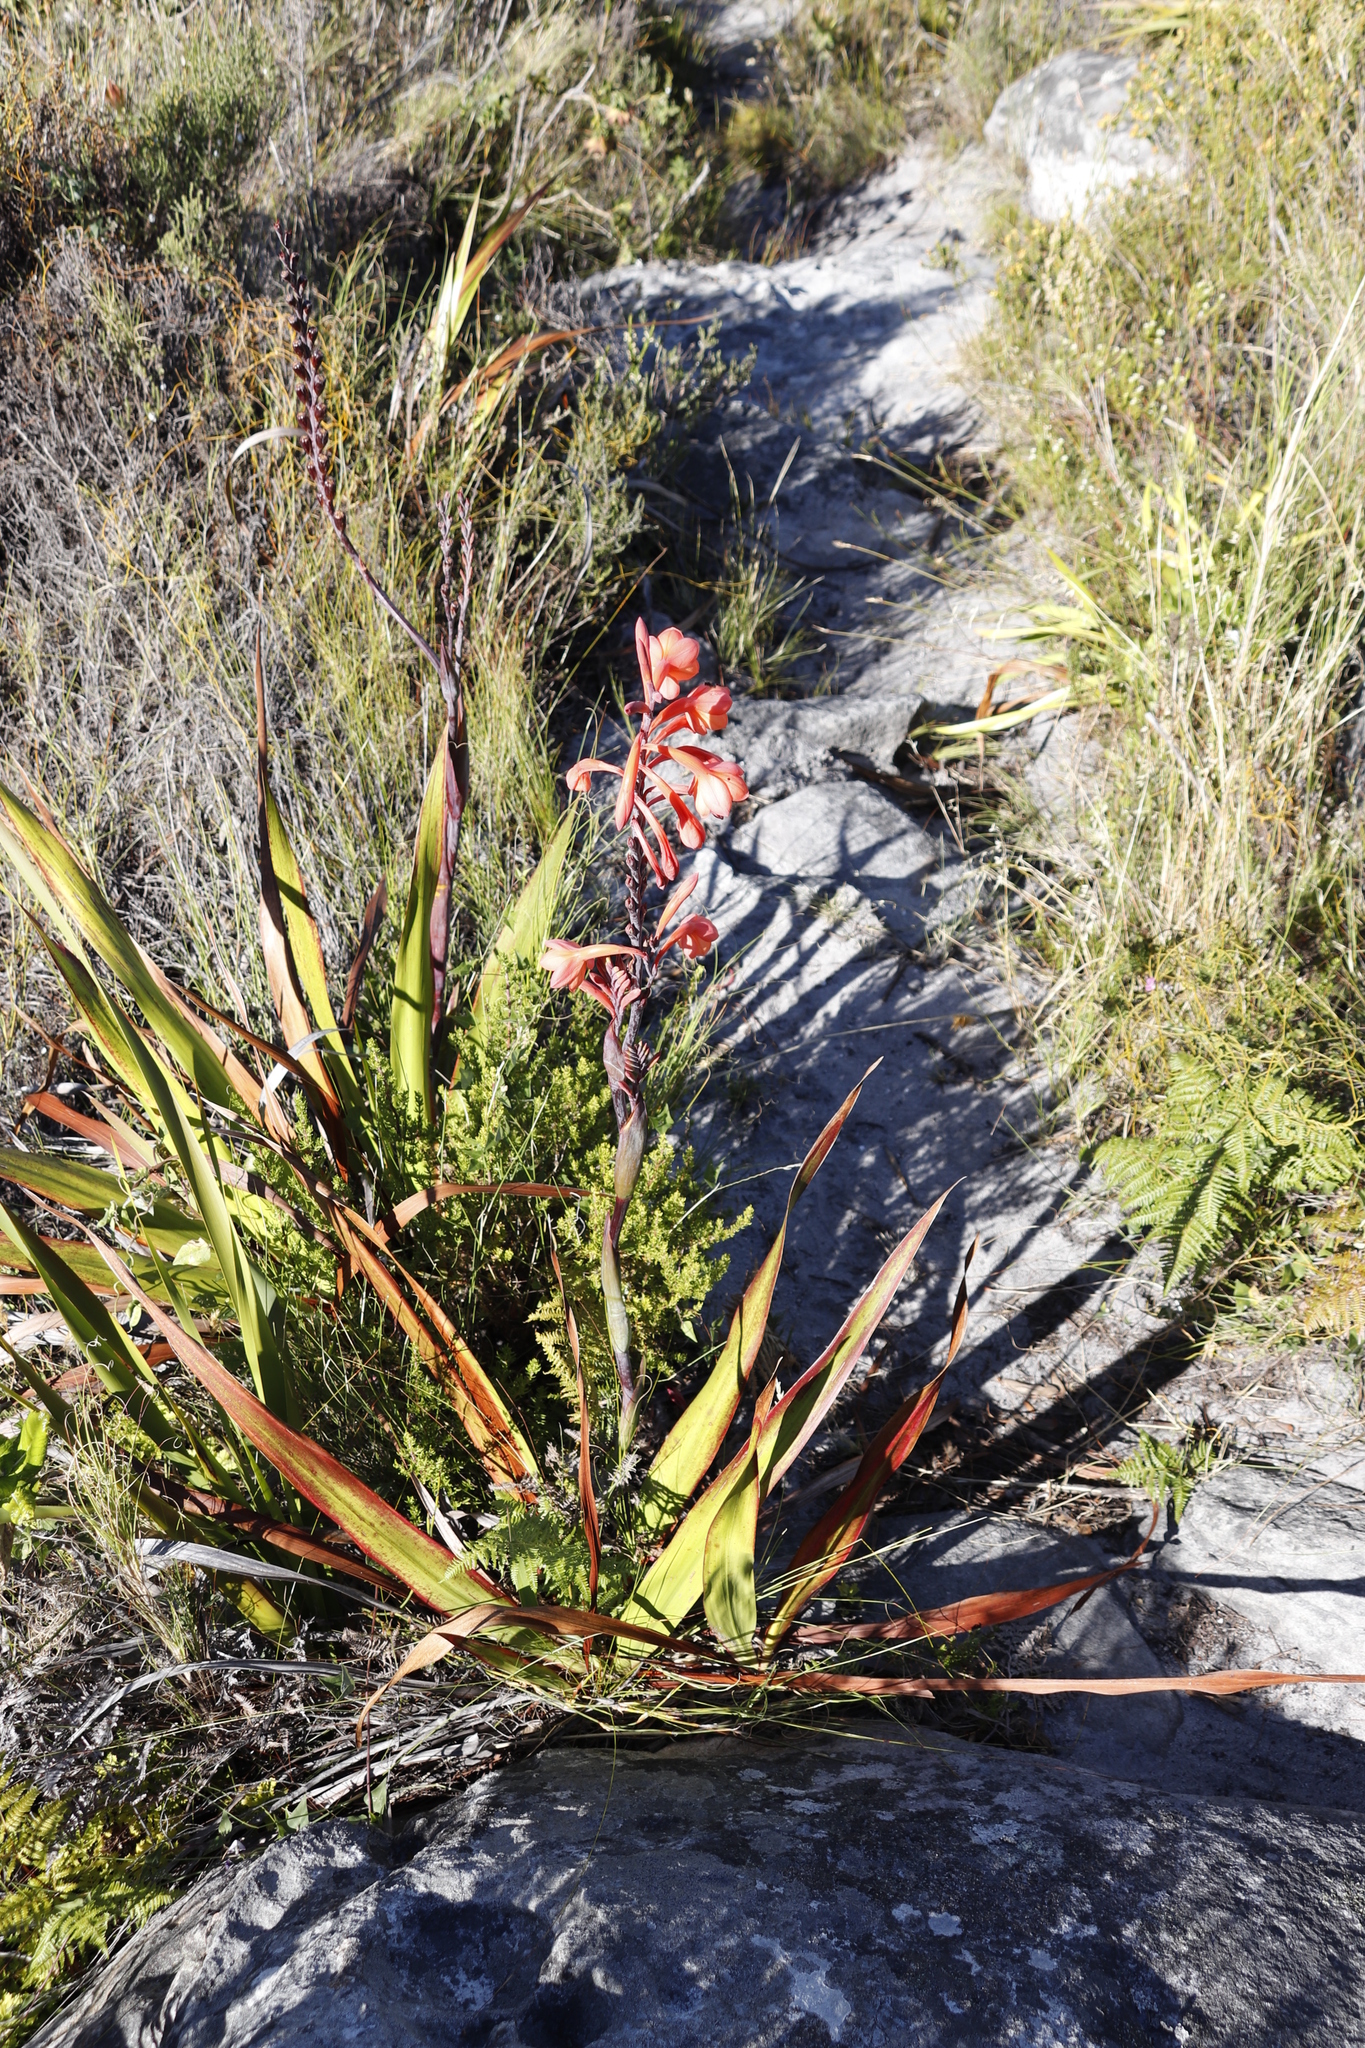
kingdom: Plantae
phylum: Tracheophyta
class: Liliopsida
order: Asparagales
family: Iridaceae
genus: Watsonia
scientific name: Watsonia tabularis
